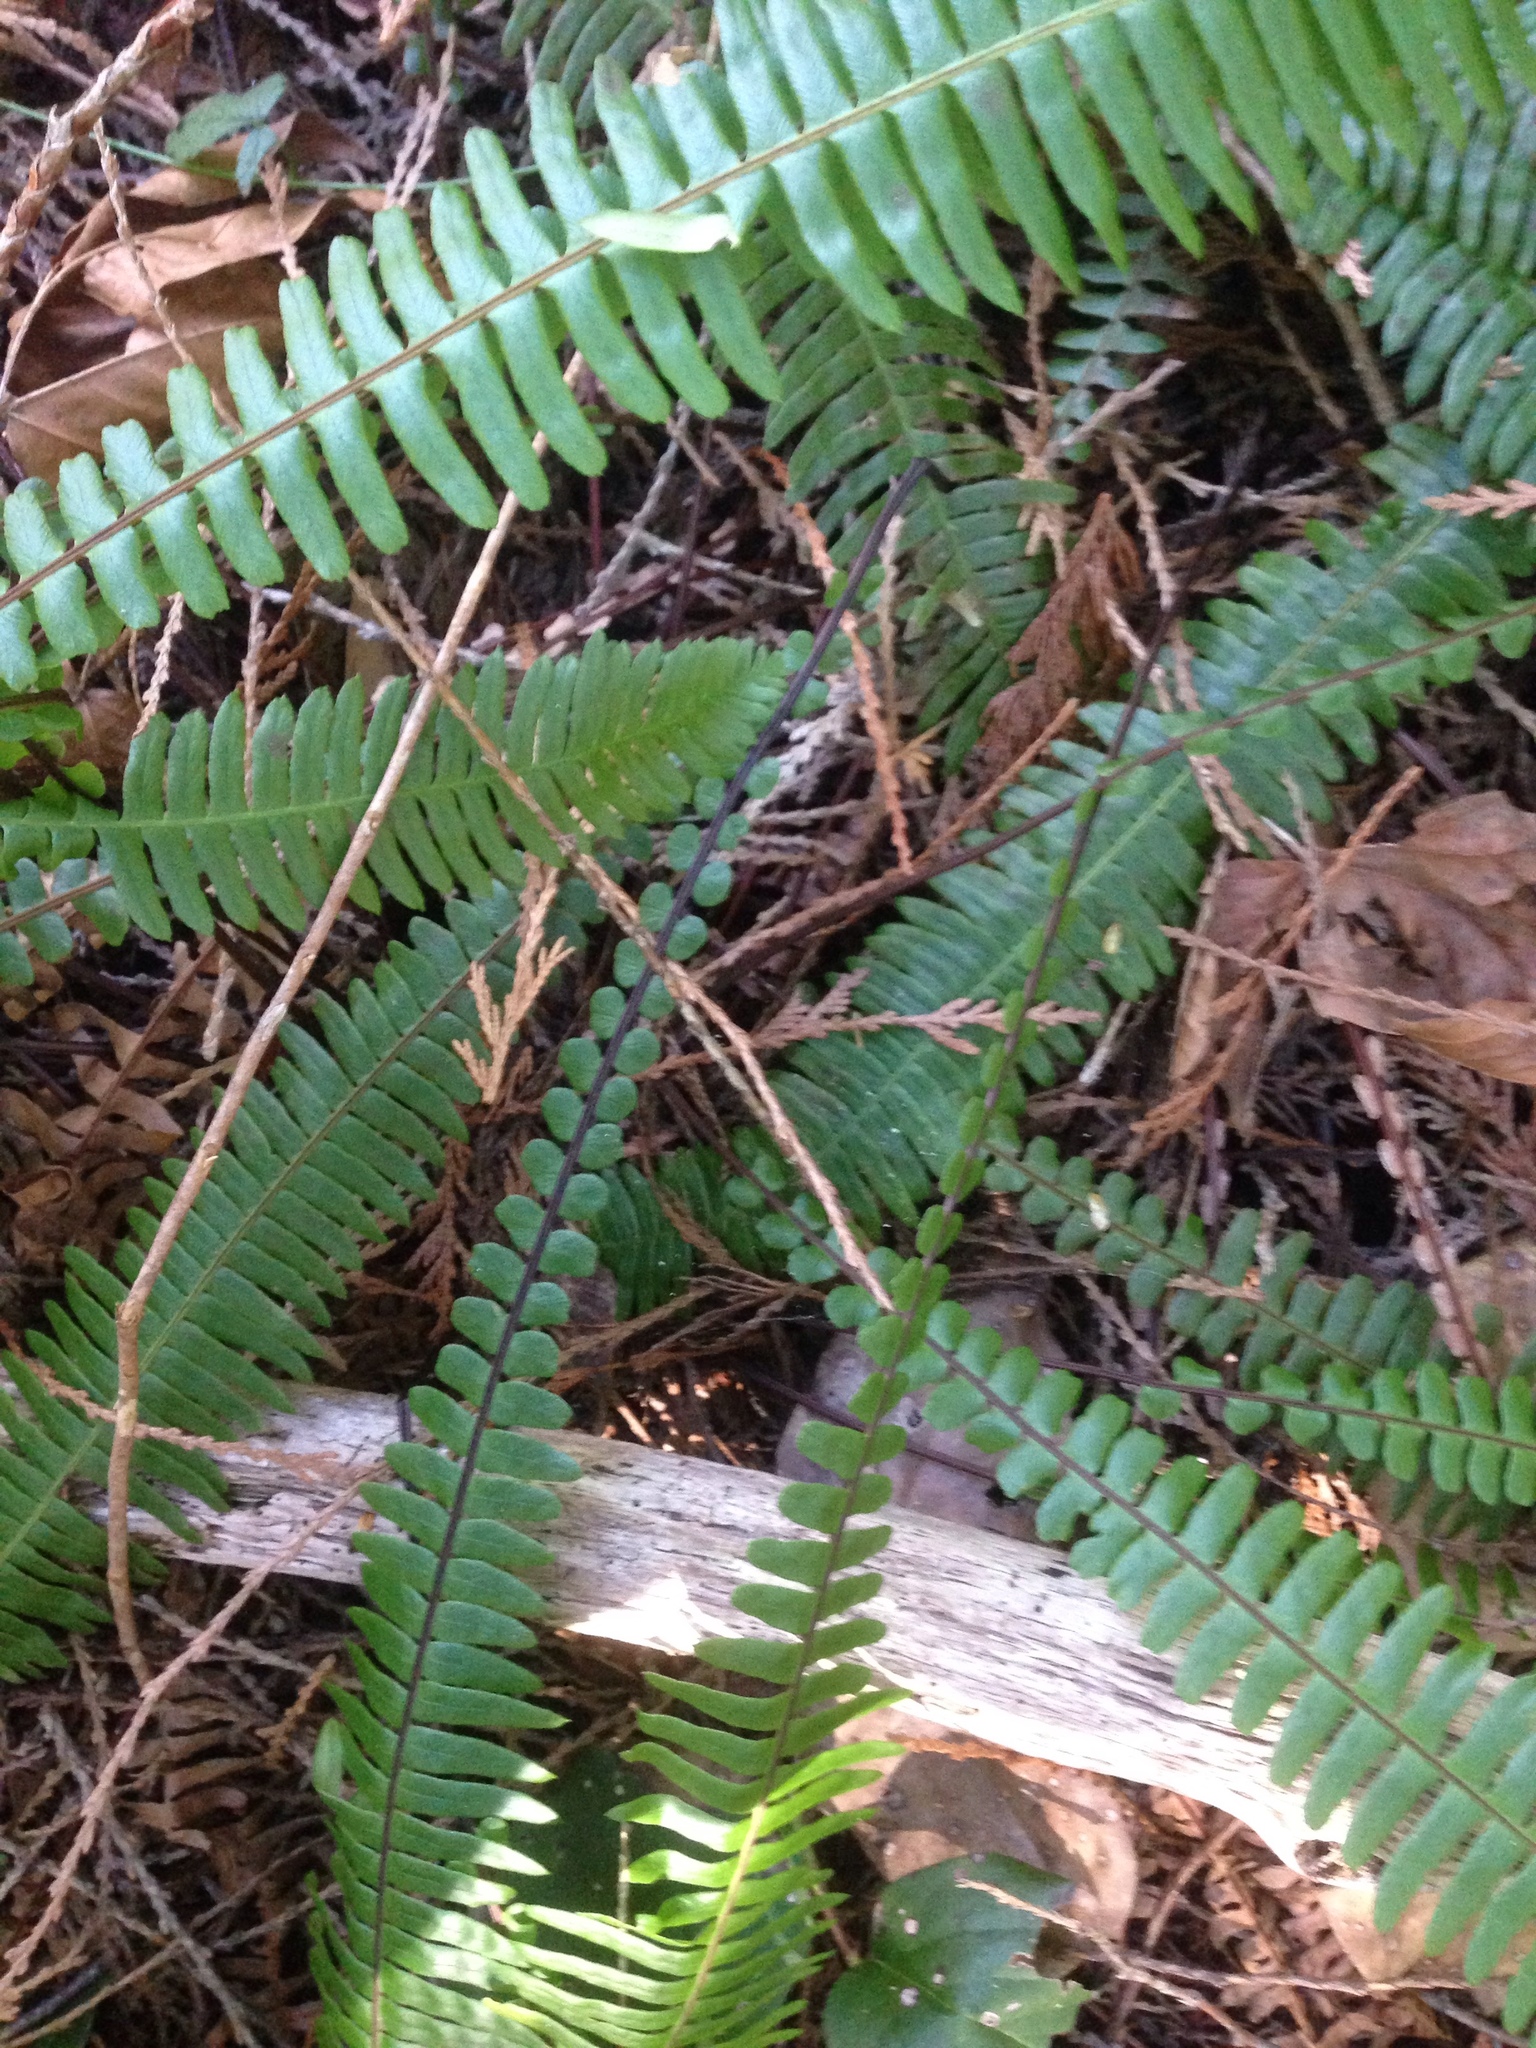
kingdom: Plantae
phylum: Tracheophyta
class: Polypodiopsida
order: Polypodiales
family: Blechnaceae
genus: Struthiopteris
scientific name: Struthiopteris spicant
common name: Deer fern
